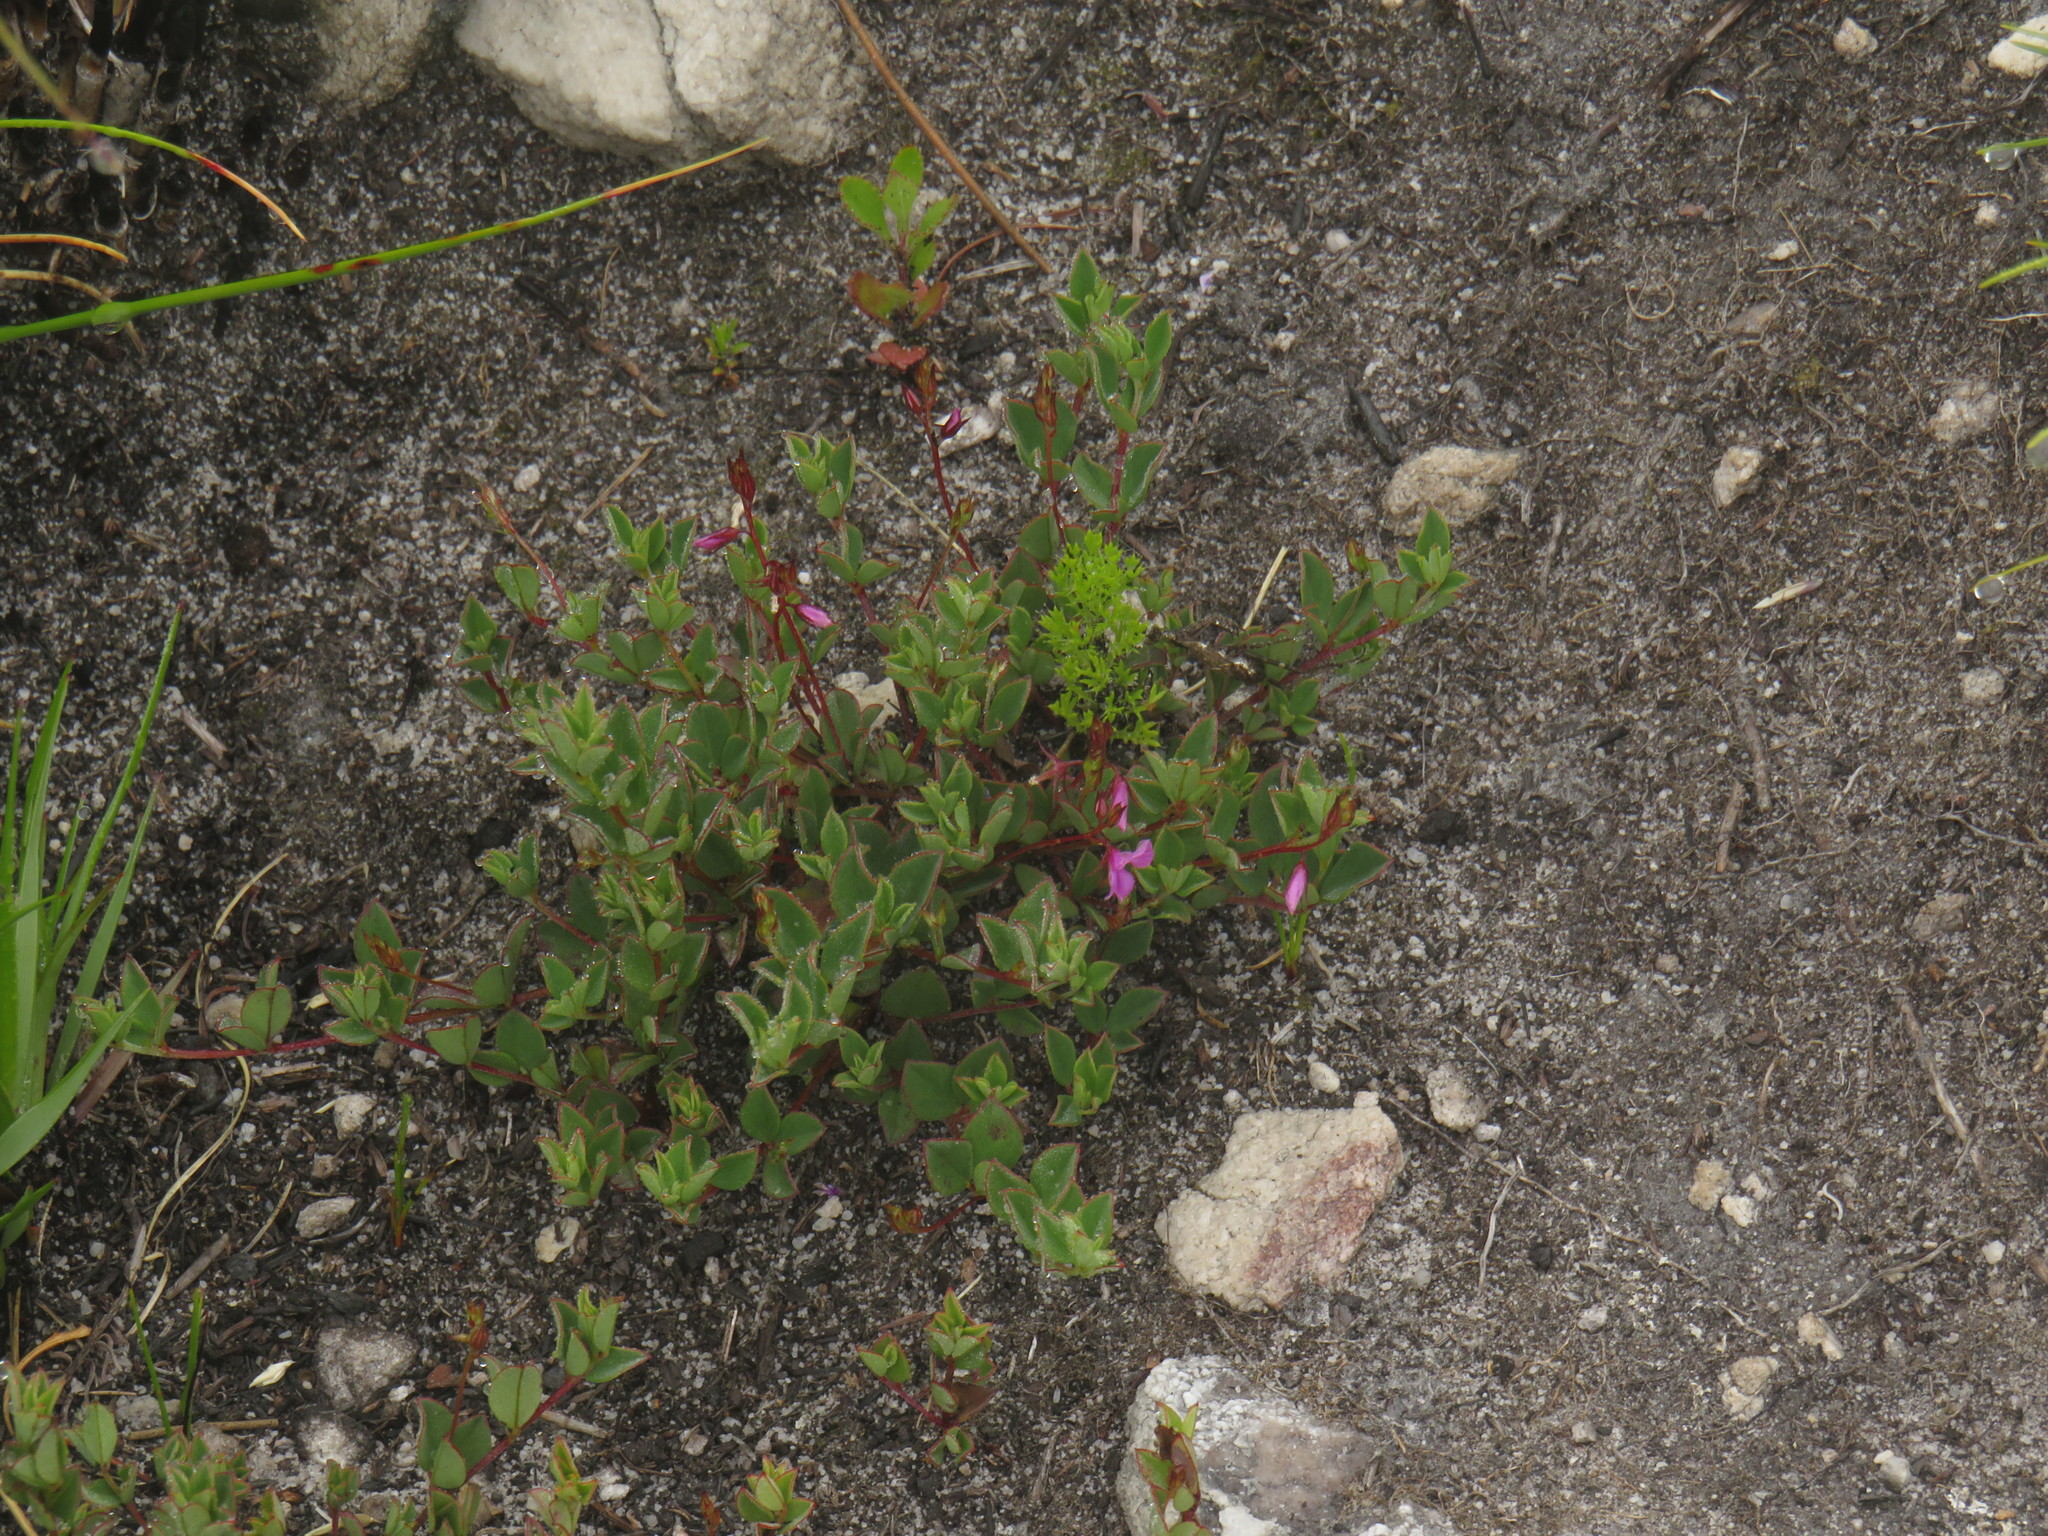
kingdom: Plantae
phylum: Tracheophyta
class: Magnoliopsida
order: Fabales
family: Fabaceae
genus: Indigofera
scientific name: Indigofera sarmentosa
